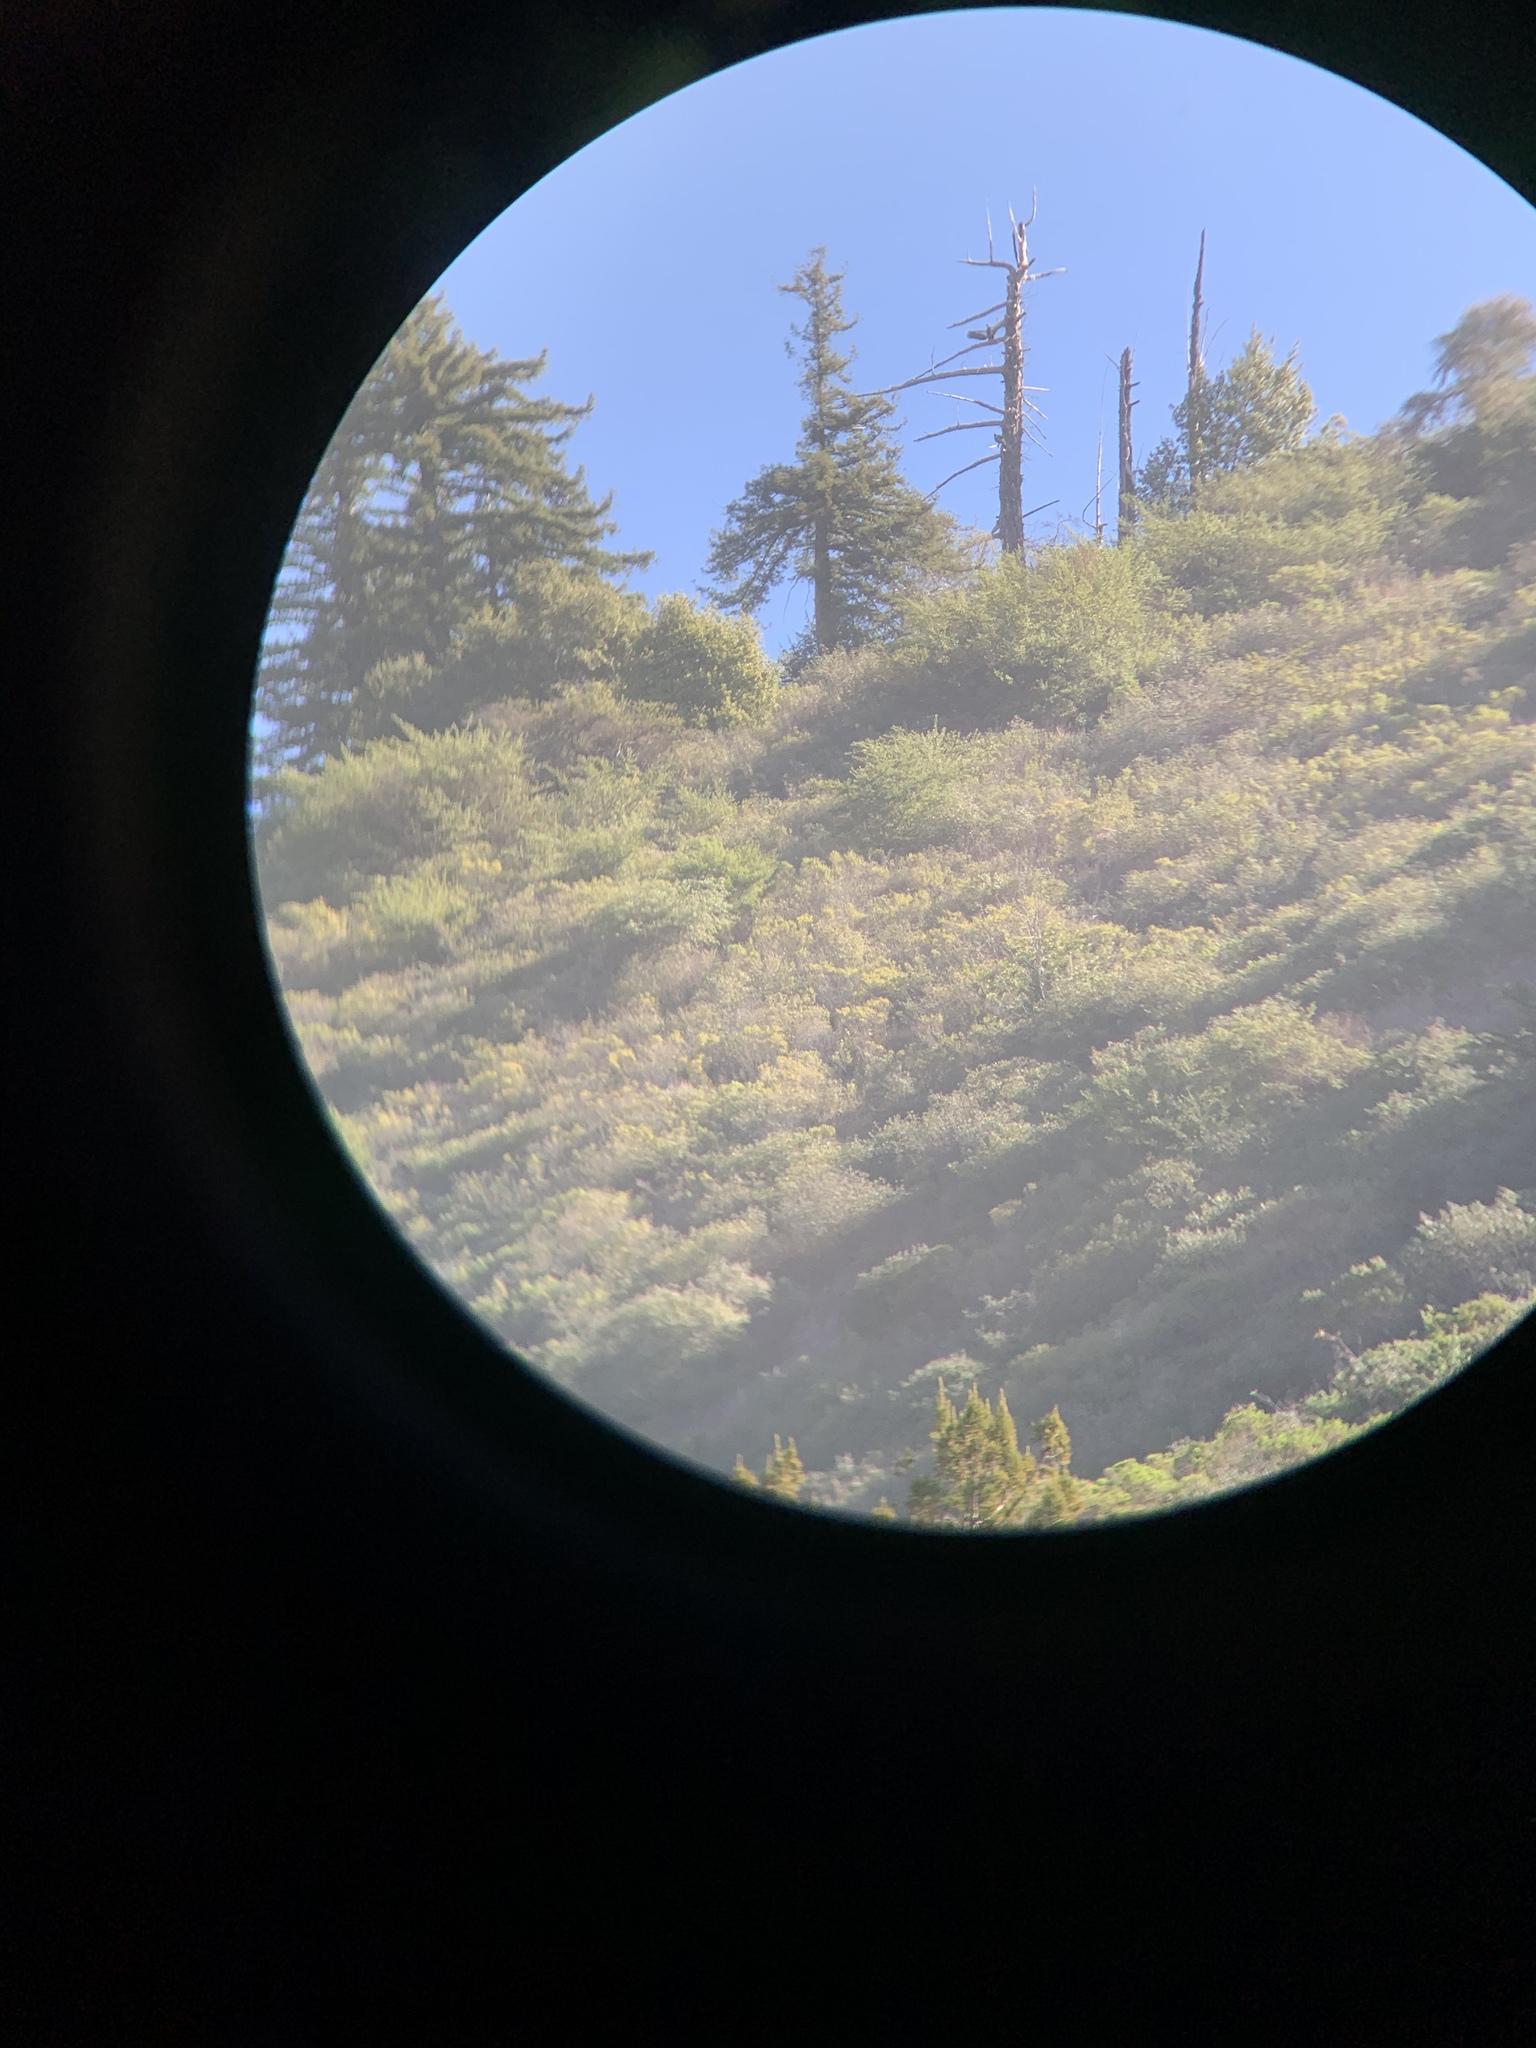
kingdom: Animalia
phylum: Chordata
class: Aves
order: Accipitriformes
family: Cathartidae
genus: Gymnogyps
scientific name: Gymnogyps californianus
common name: California condor
